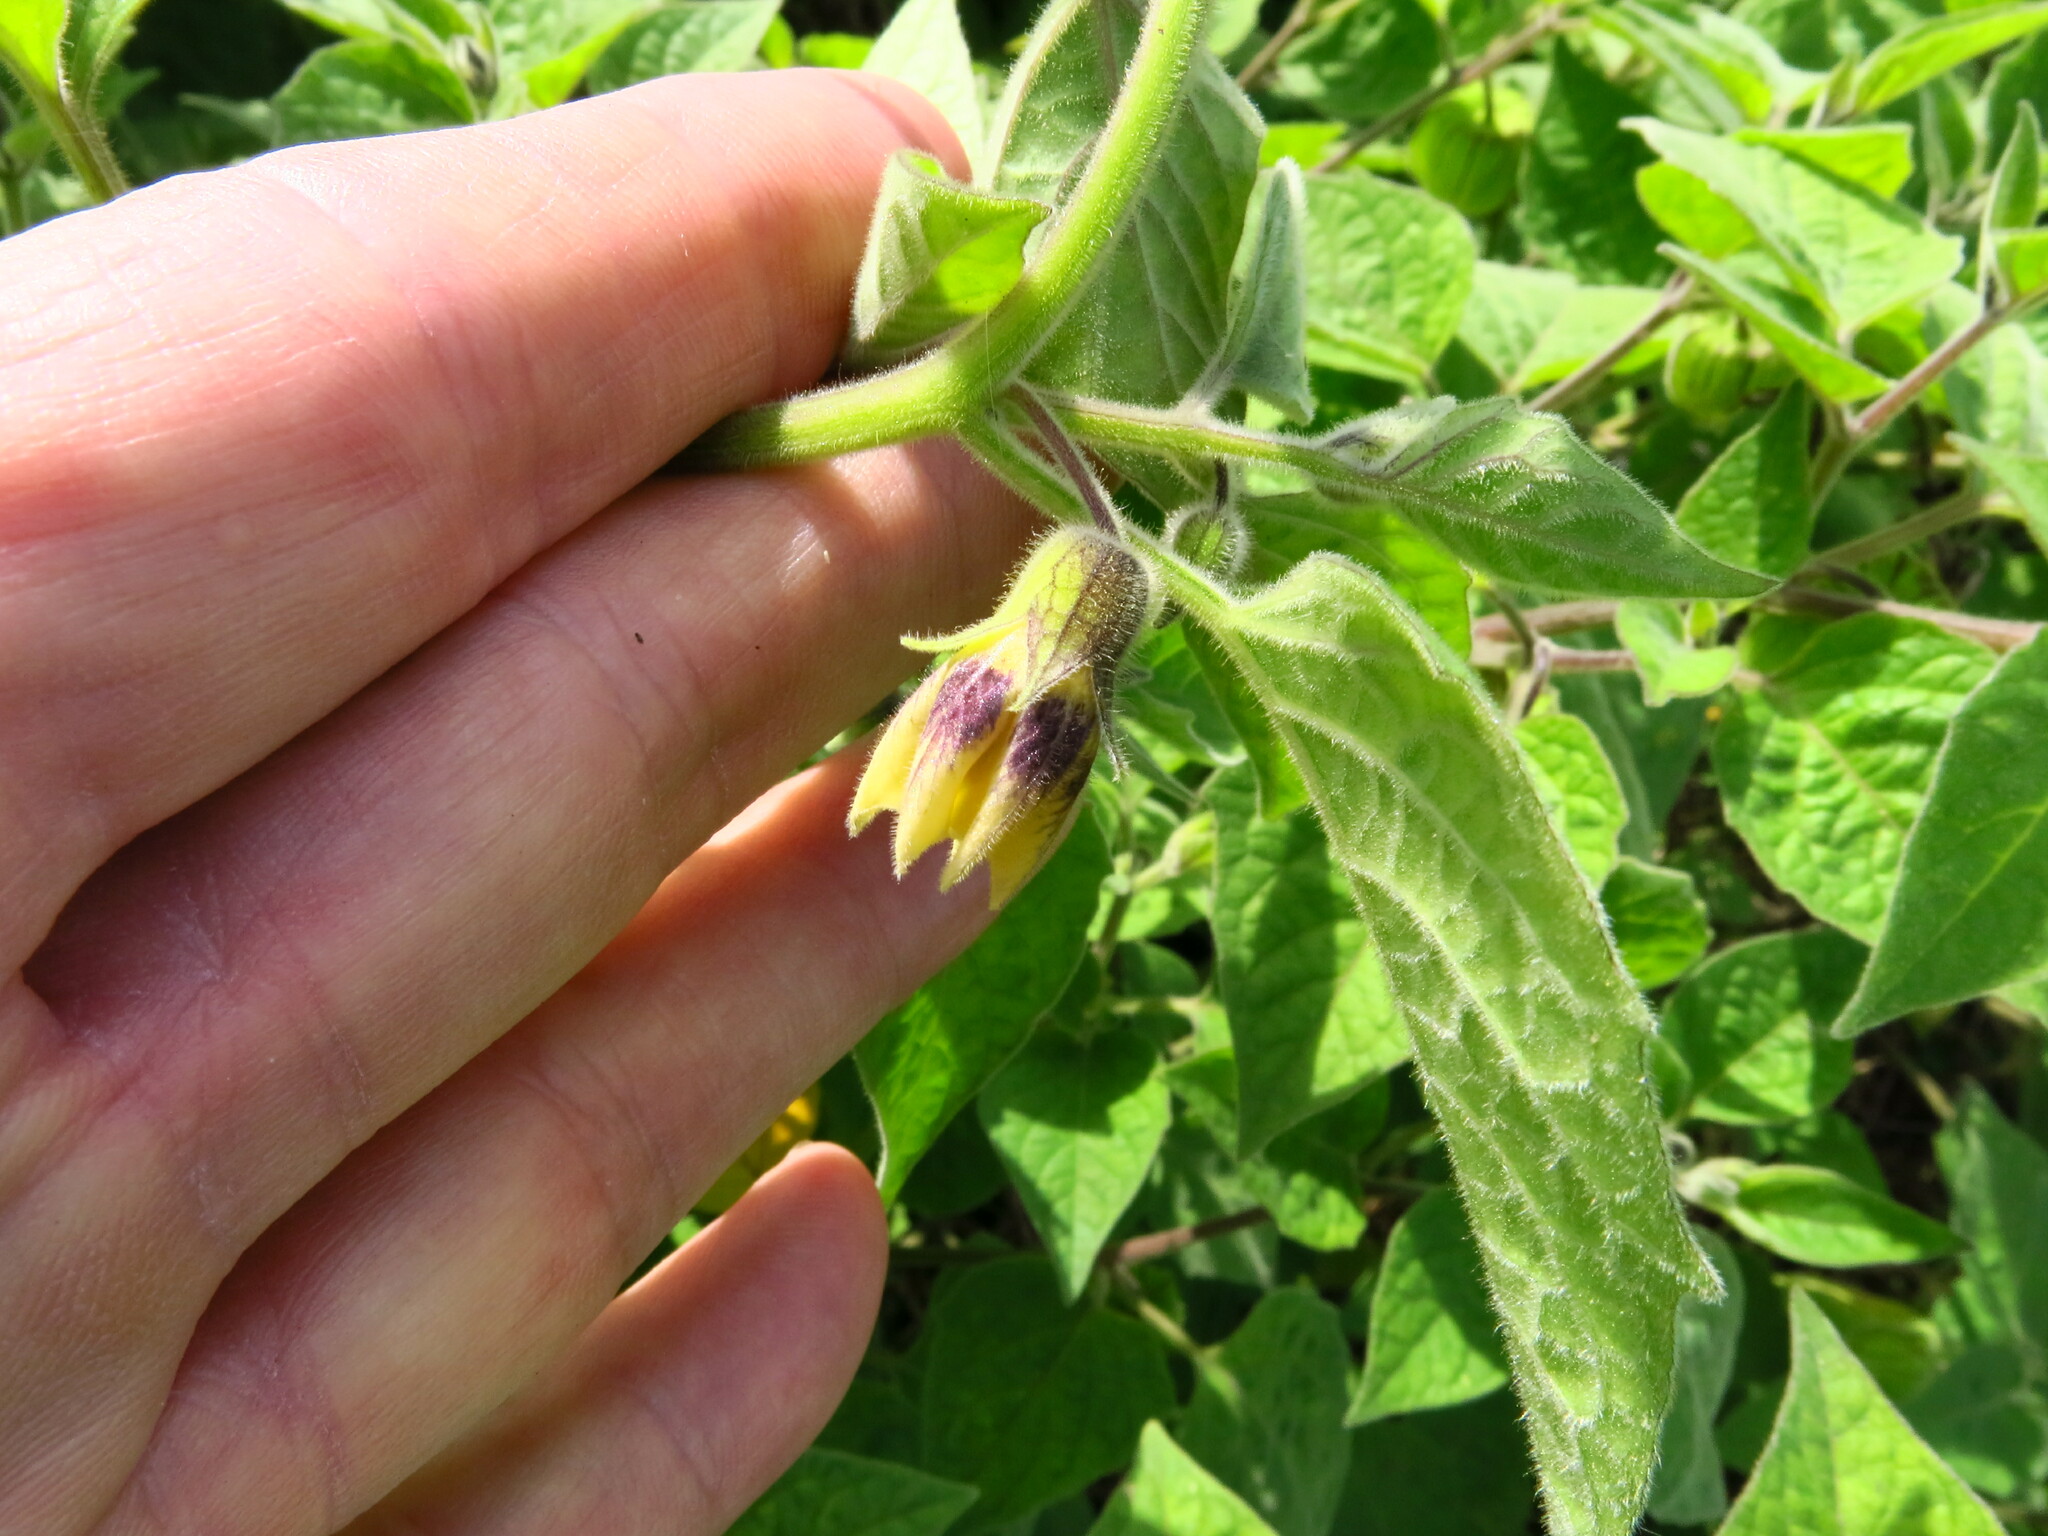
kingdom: Plantae
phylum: Tracheophyta
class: Magnoliopsida
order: Solanales
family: Solanaceae
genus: Physalis
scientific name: Physalis peruviana
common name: Cape-gooseberry
